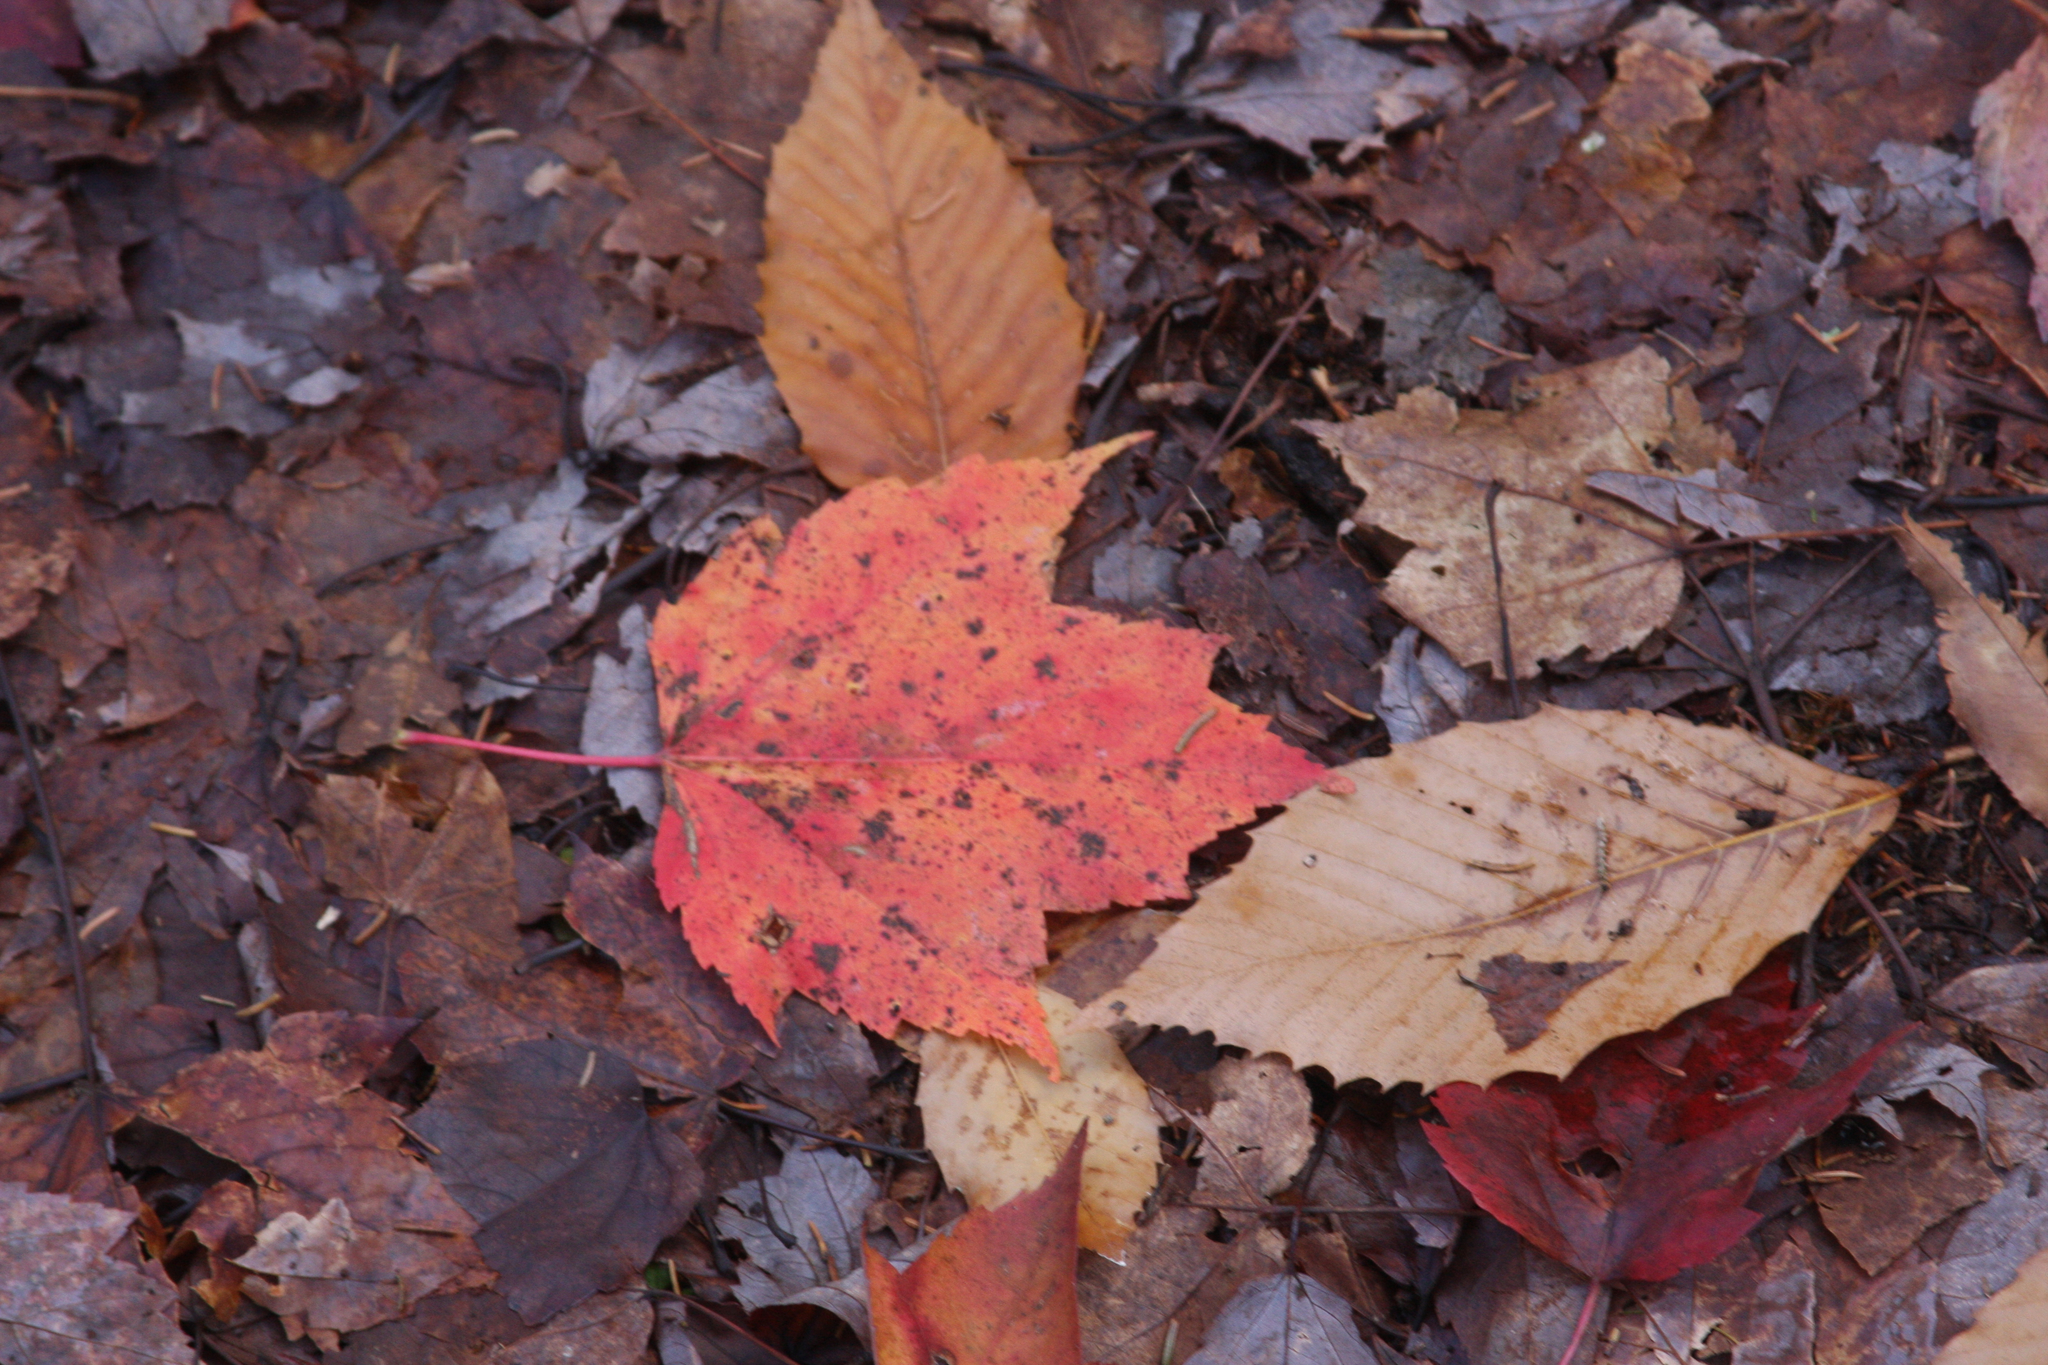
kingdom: Plantae
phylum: Tracheophyta
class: Magnoliopsida
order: Sapindales
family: Sapindaceae
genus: Acer
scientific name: Acer rubrum
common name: Red maple
